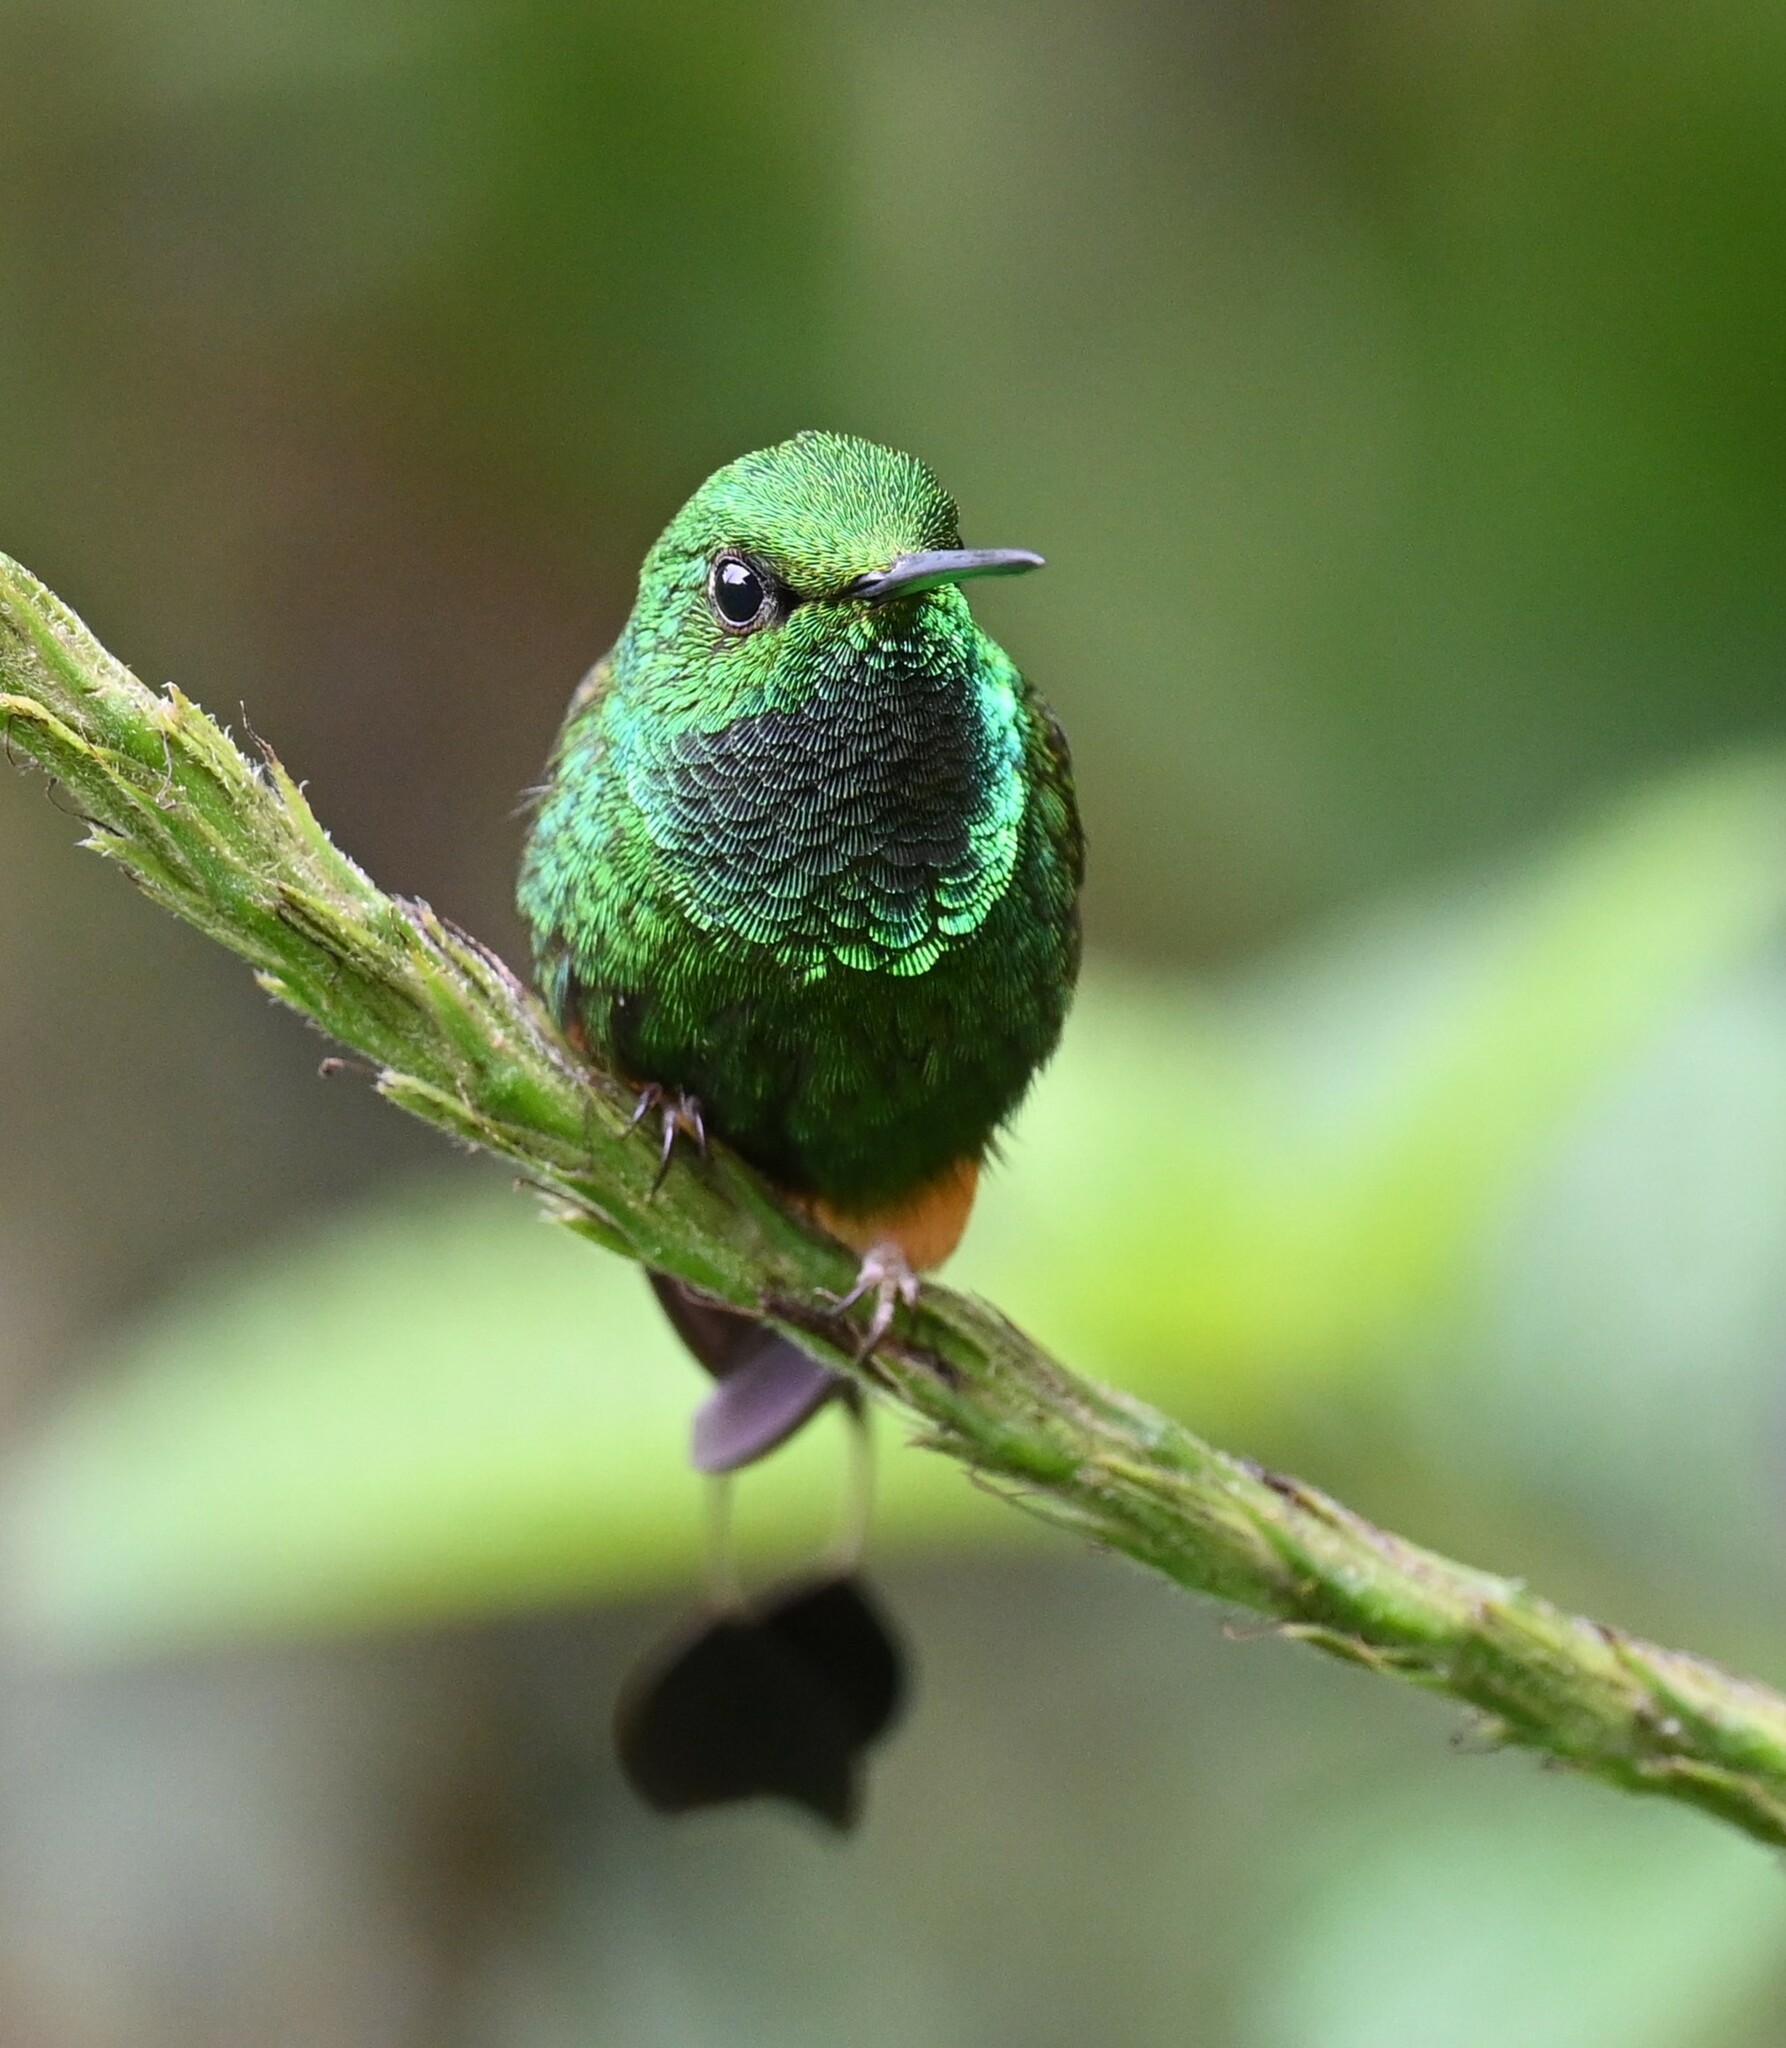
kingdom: Animalia
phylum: Chordata
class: Aves
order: Apodiformes
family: Trochilidae
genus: Ocreatus
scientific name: Ocreatus peruanus
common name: Peruvian racket-tail
